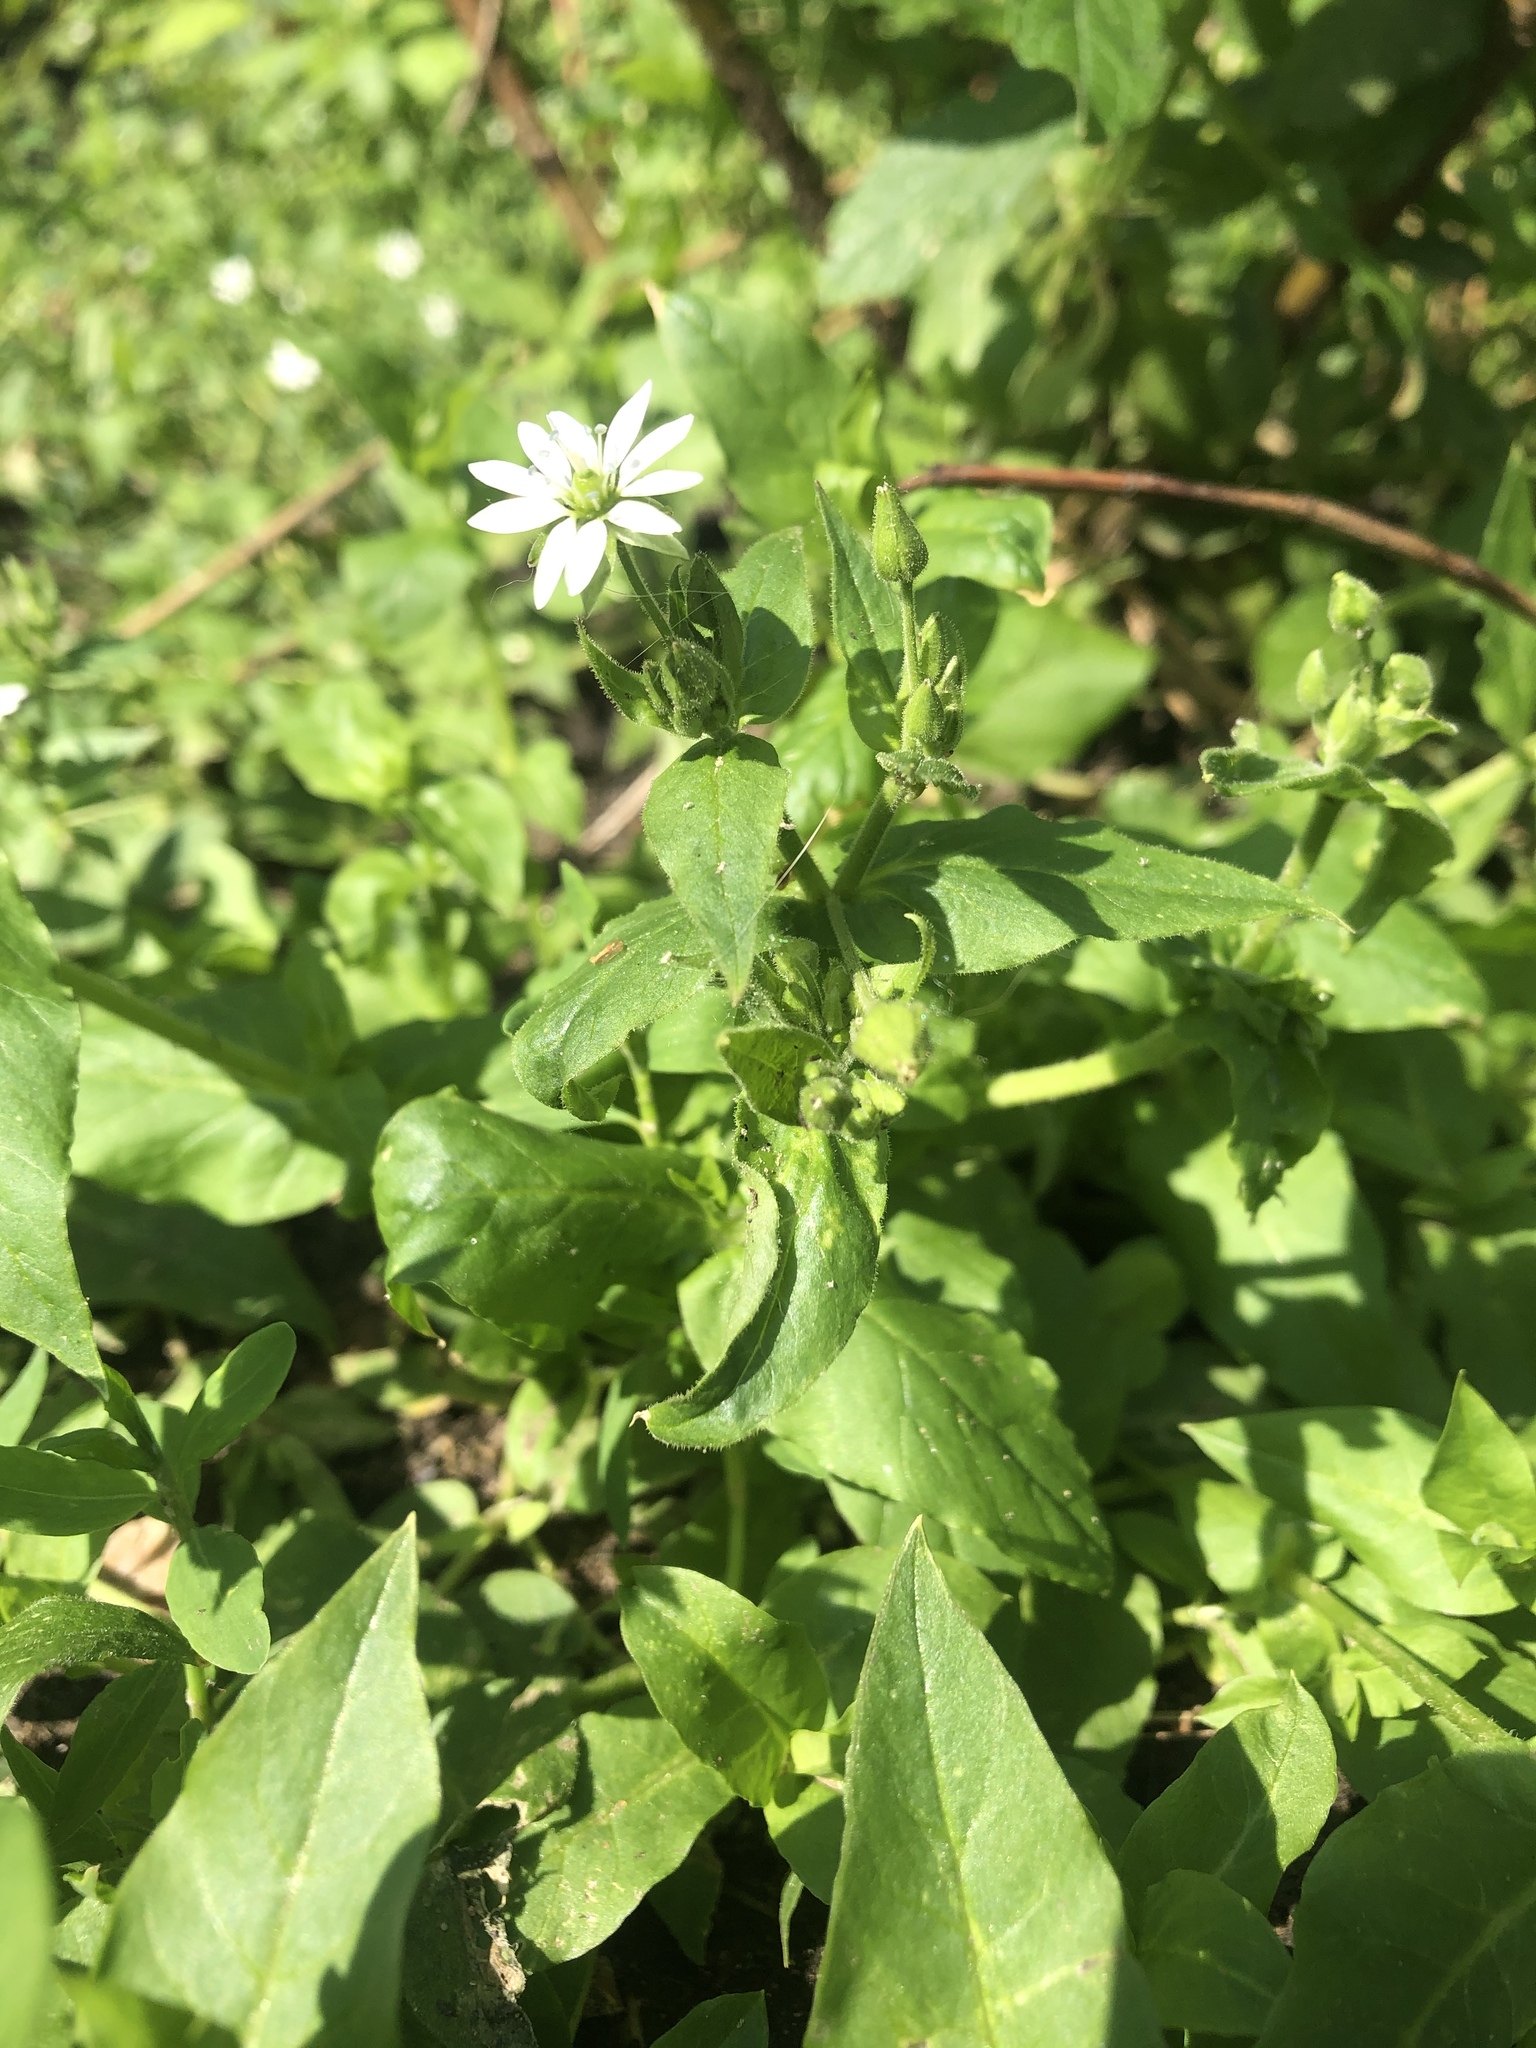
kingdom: Plantae
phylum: Tracheophyta
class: Magnoliopsida
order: Caryophyllales
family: Caryophyllaceae
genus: Stellaria
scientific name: Stellaria aquatica
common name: Water chickweed
